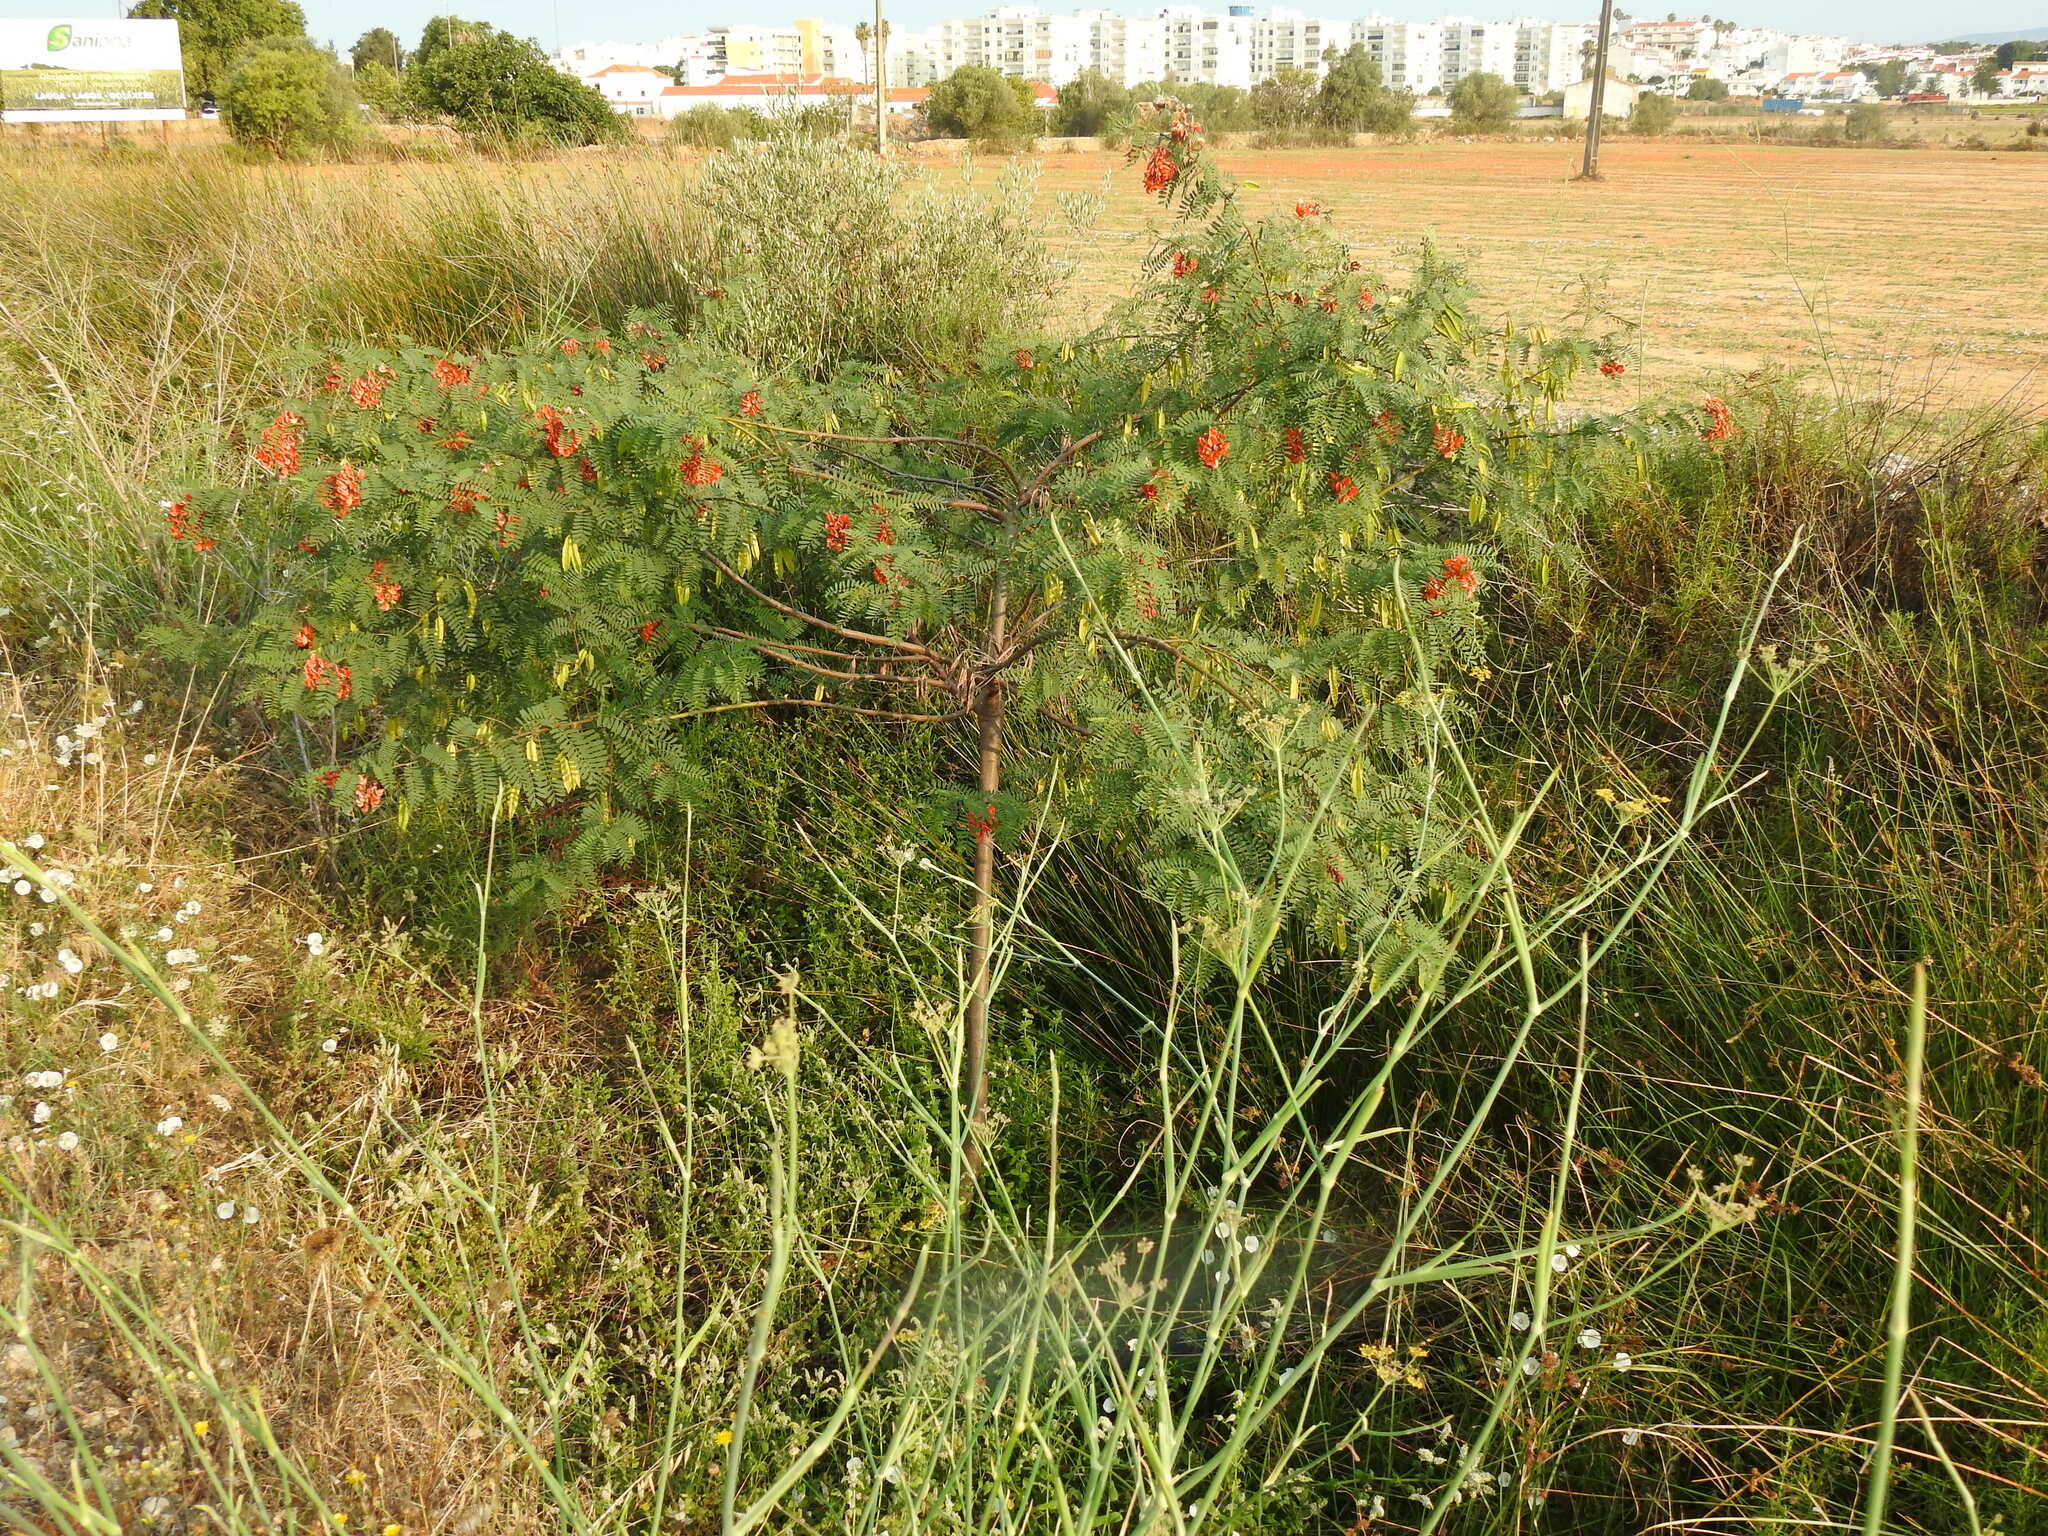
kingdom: Plantae
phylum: Tracheophyta
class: Magnoliopsida
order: Fabales
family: Fabaceae
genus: Sesbania
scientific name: Sesbania punicea
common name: Rattlebox
